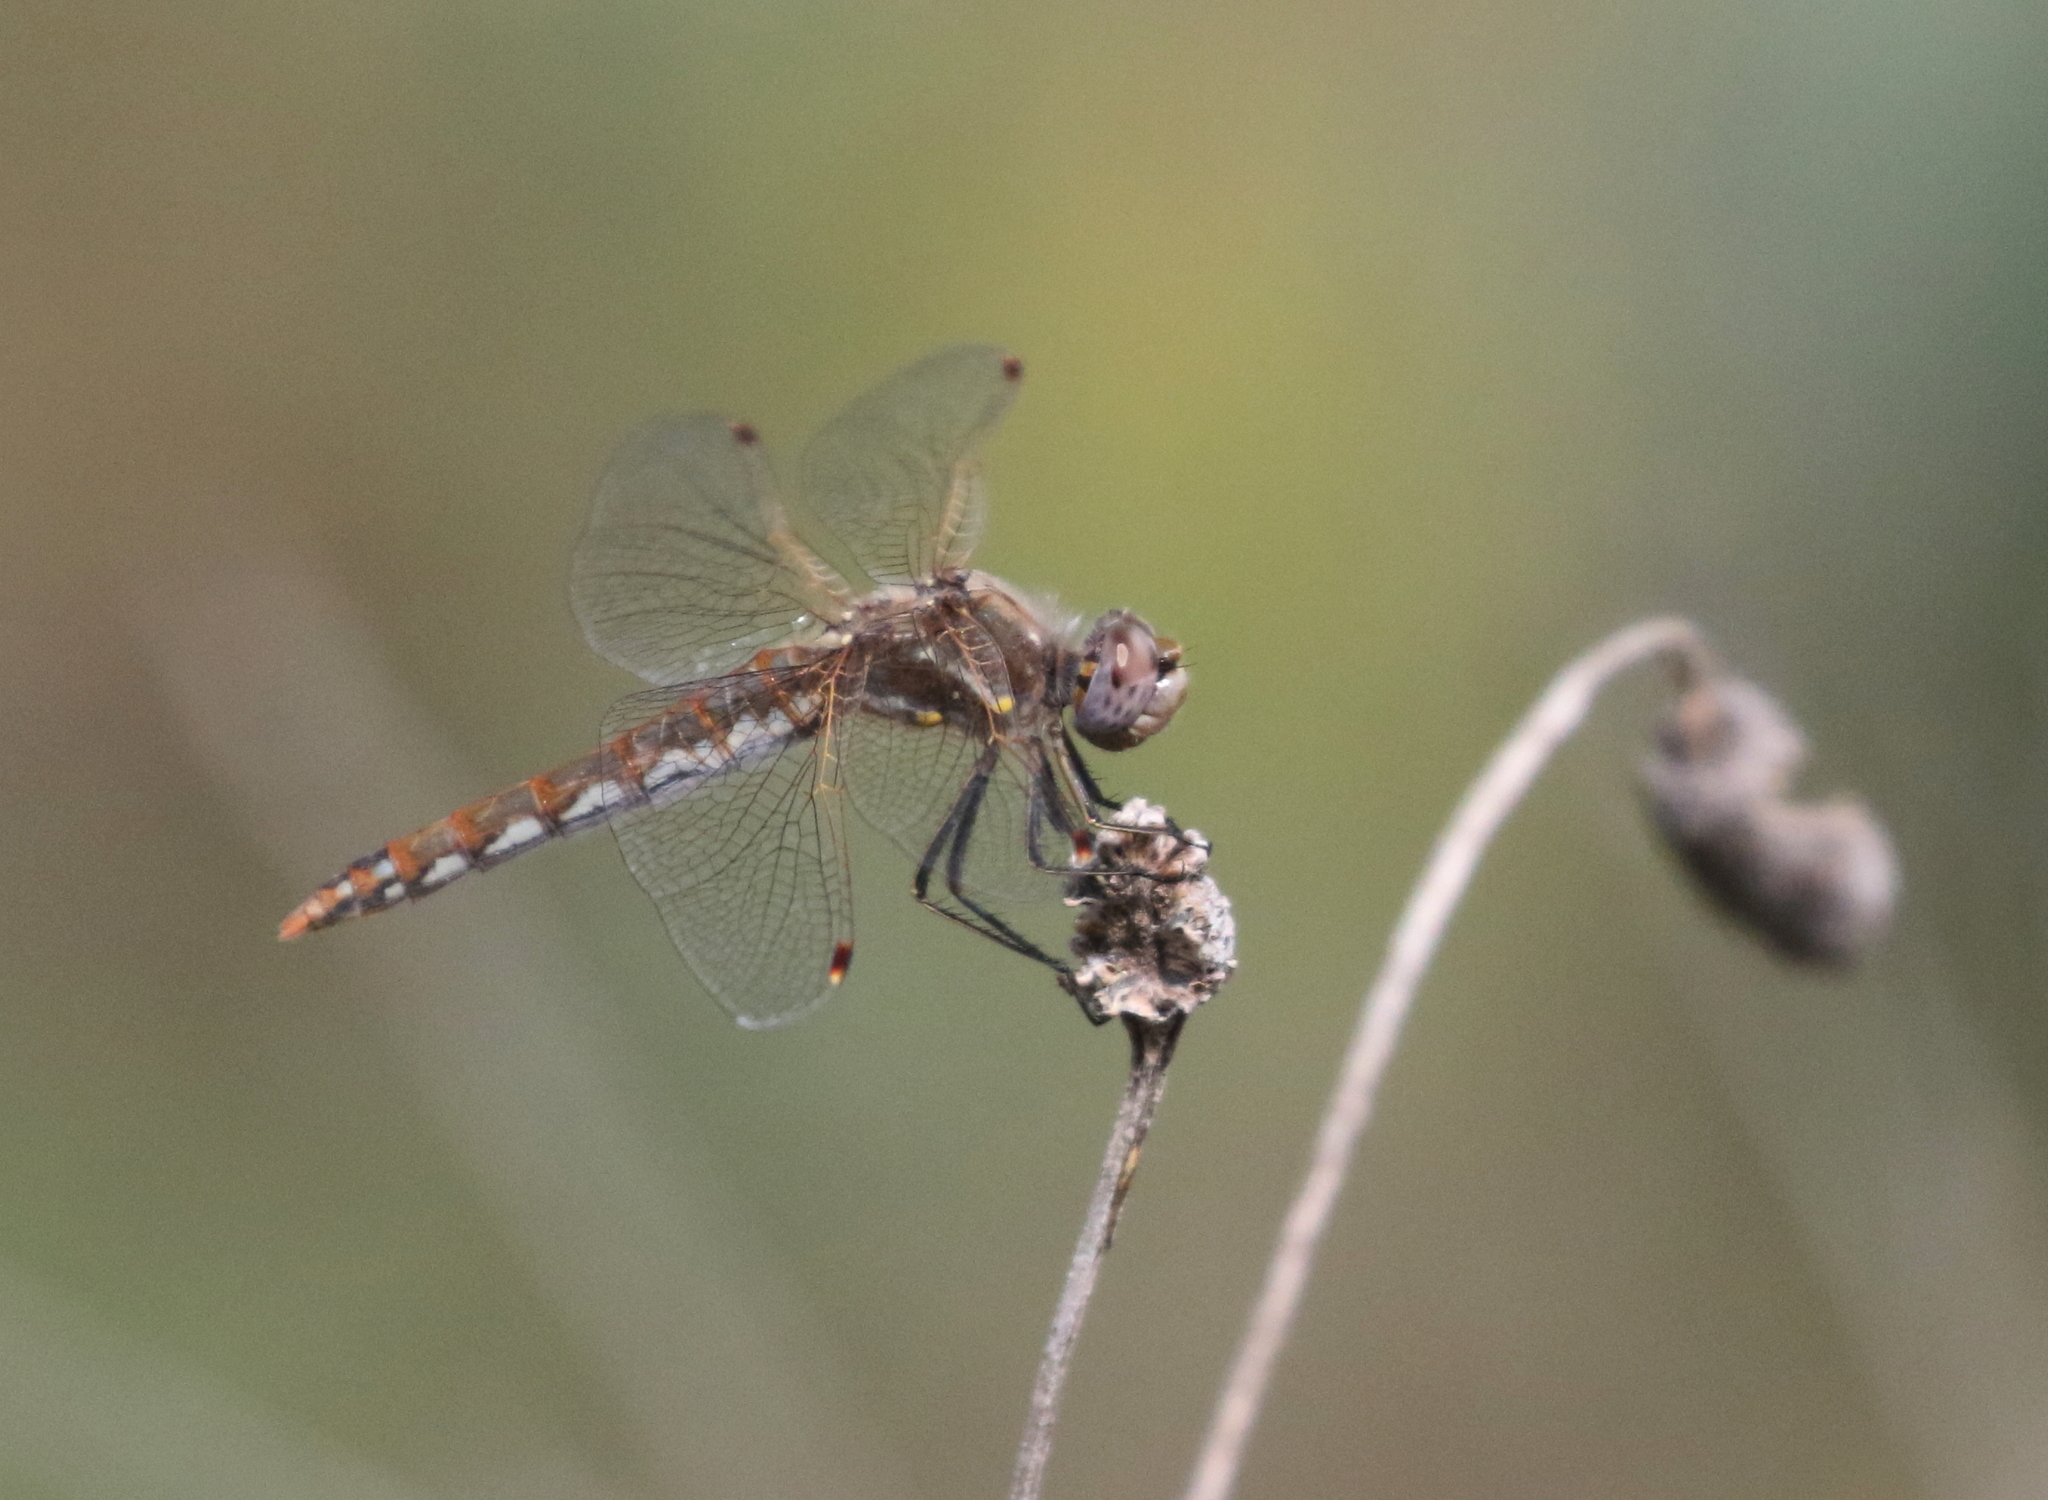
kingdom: Animalia
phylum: Arthropoda
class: Insecta
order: Odonata
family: Libellulidae
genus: Sympetrum
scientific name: Sympetrum corruptum
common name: Variegated meadowhawk
